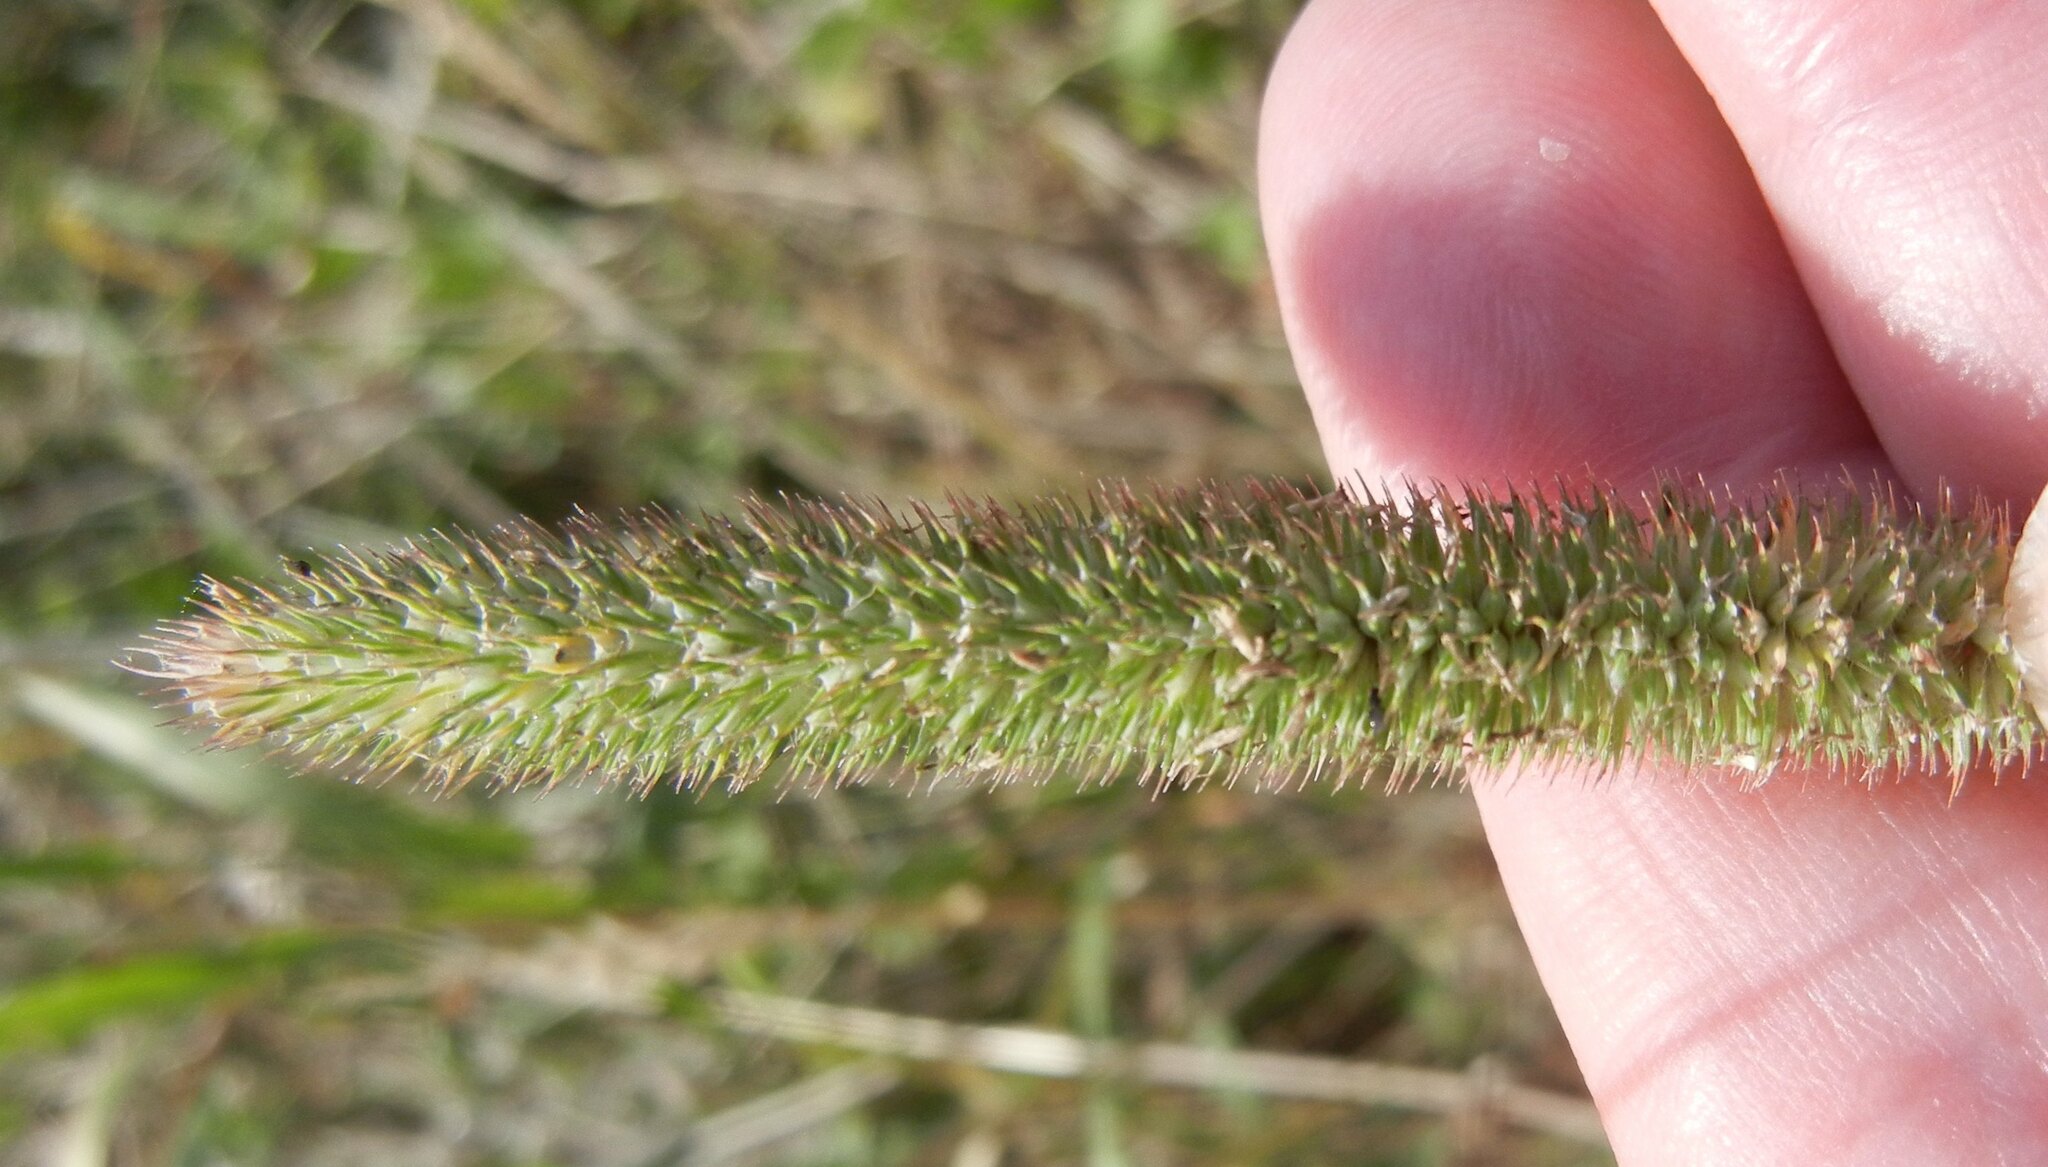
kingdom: Plantae
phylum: Tracheophyta
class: Liliopsida
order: Poales
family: Poaceae
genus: Phleum
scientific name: Phleum pratense
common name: Timothy grass
